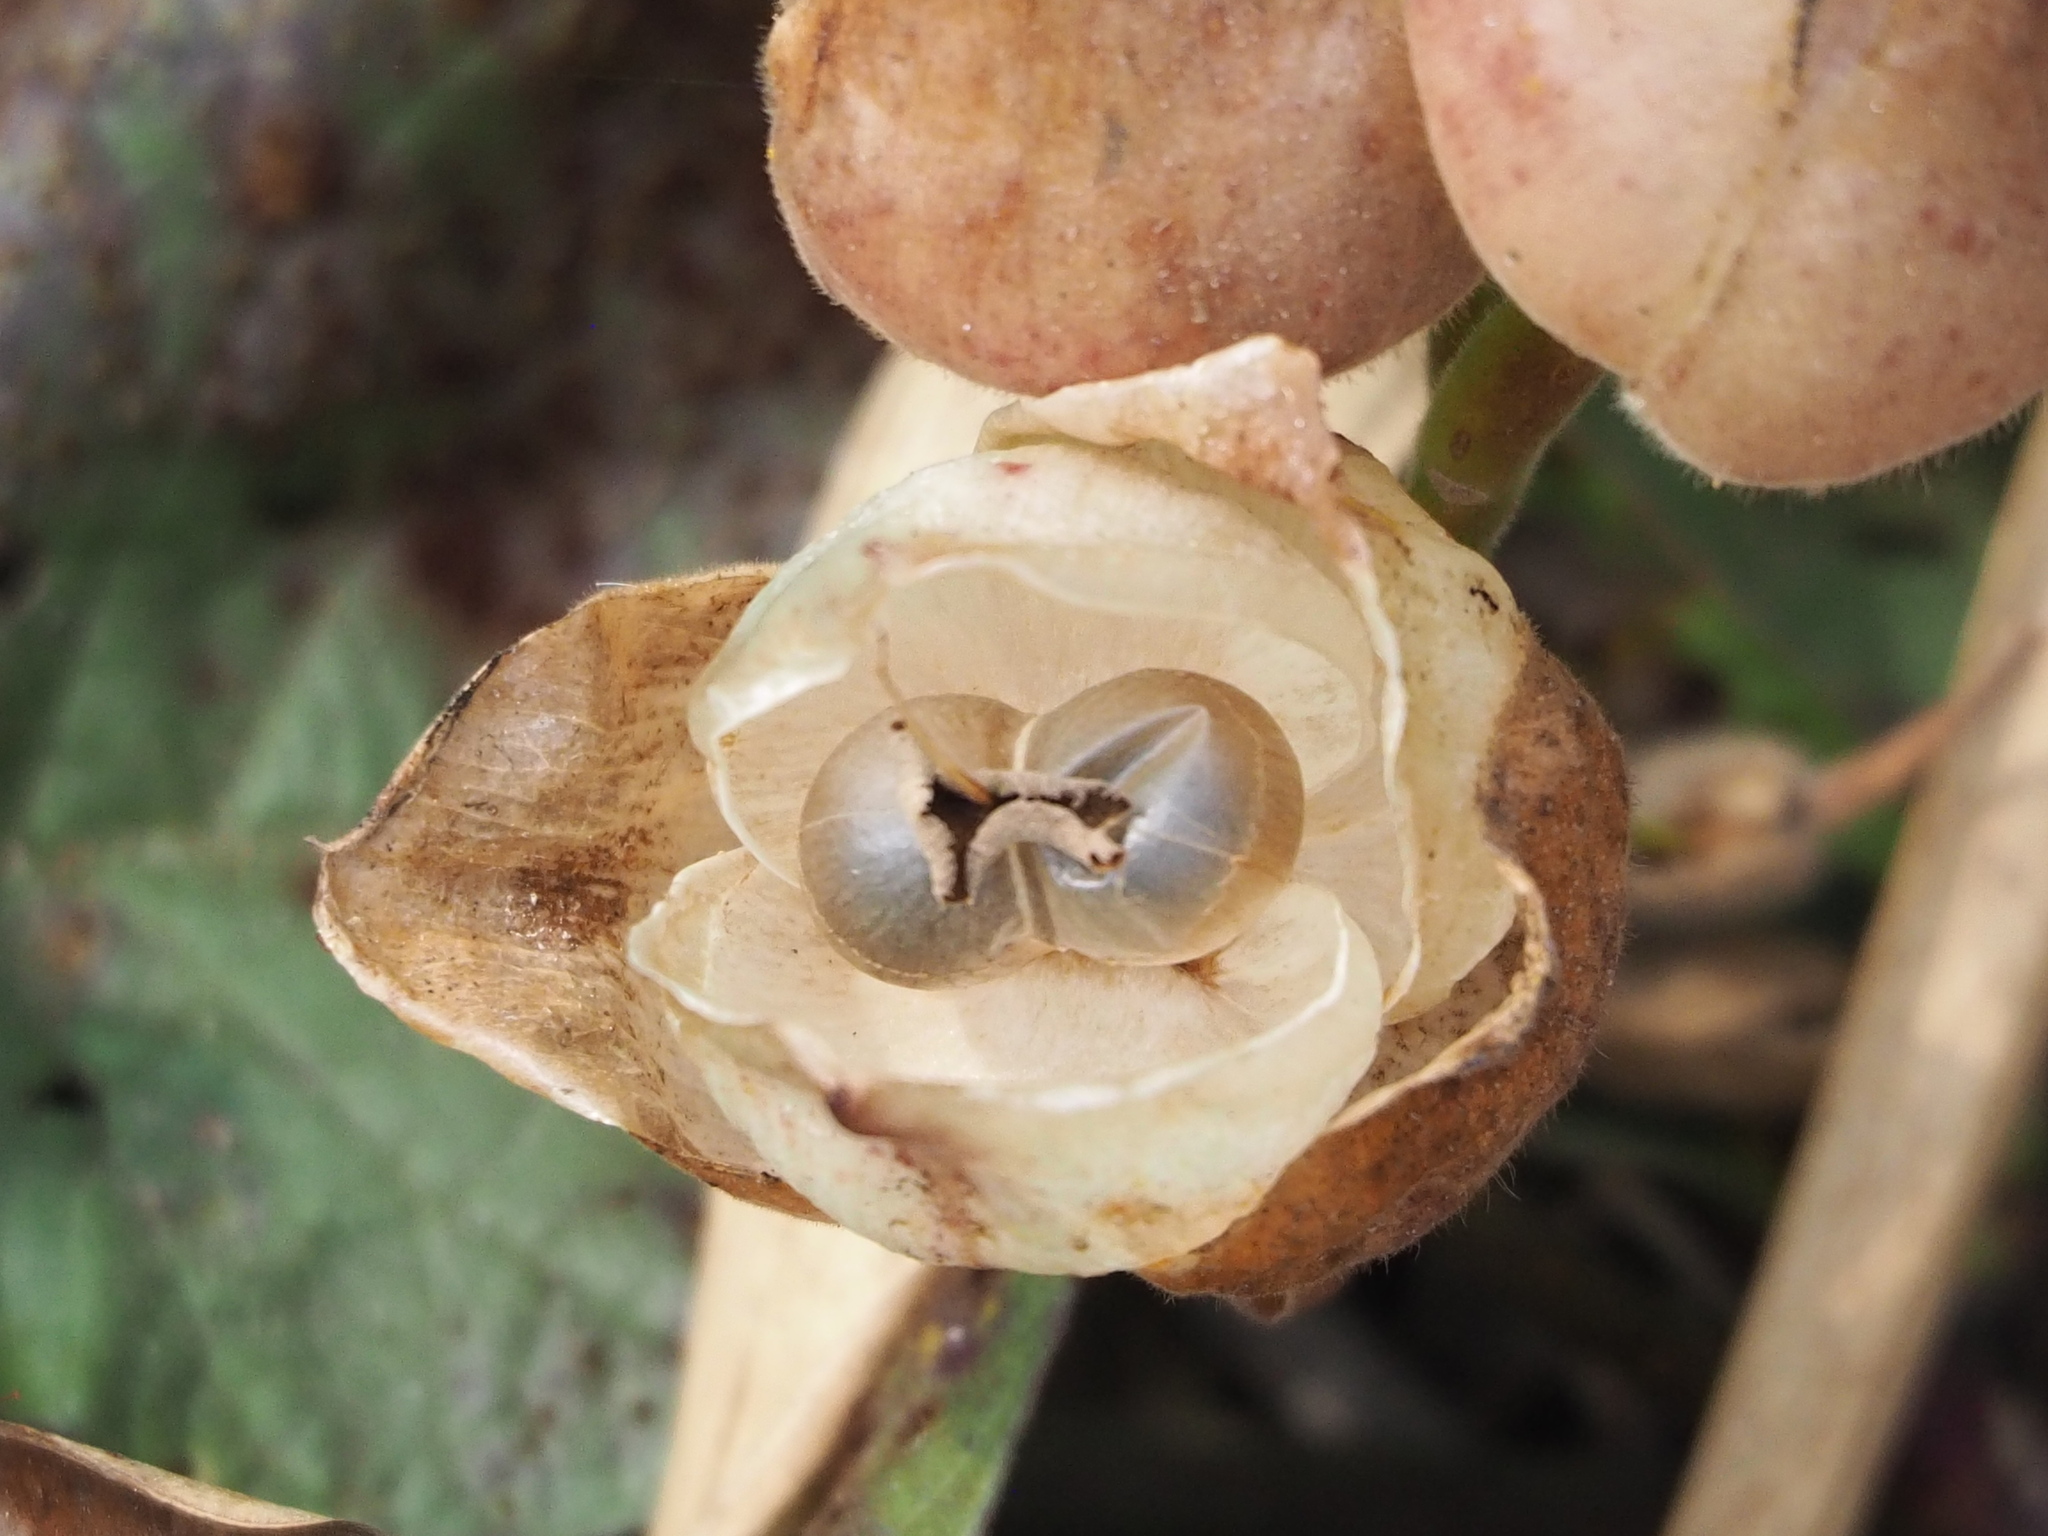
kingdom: Plantae
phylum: Tracheophyta
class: Magnoliopsida
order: Solanales
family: Convolvulaceae
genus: Operculina
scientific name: Operculina turpethum
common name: Transparent wood-rose
